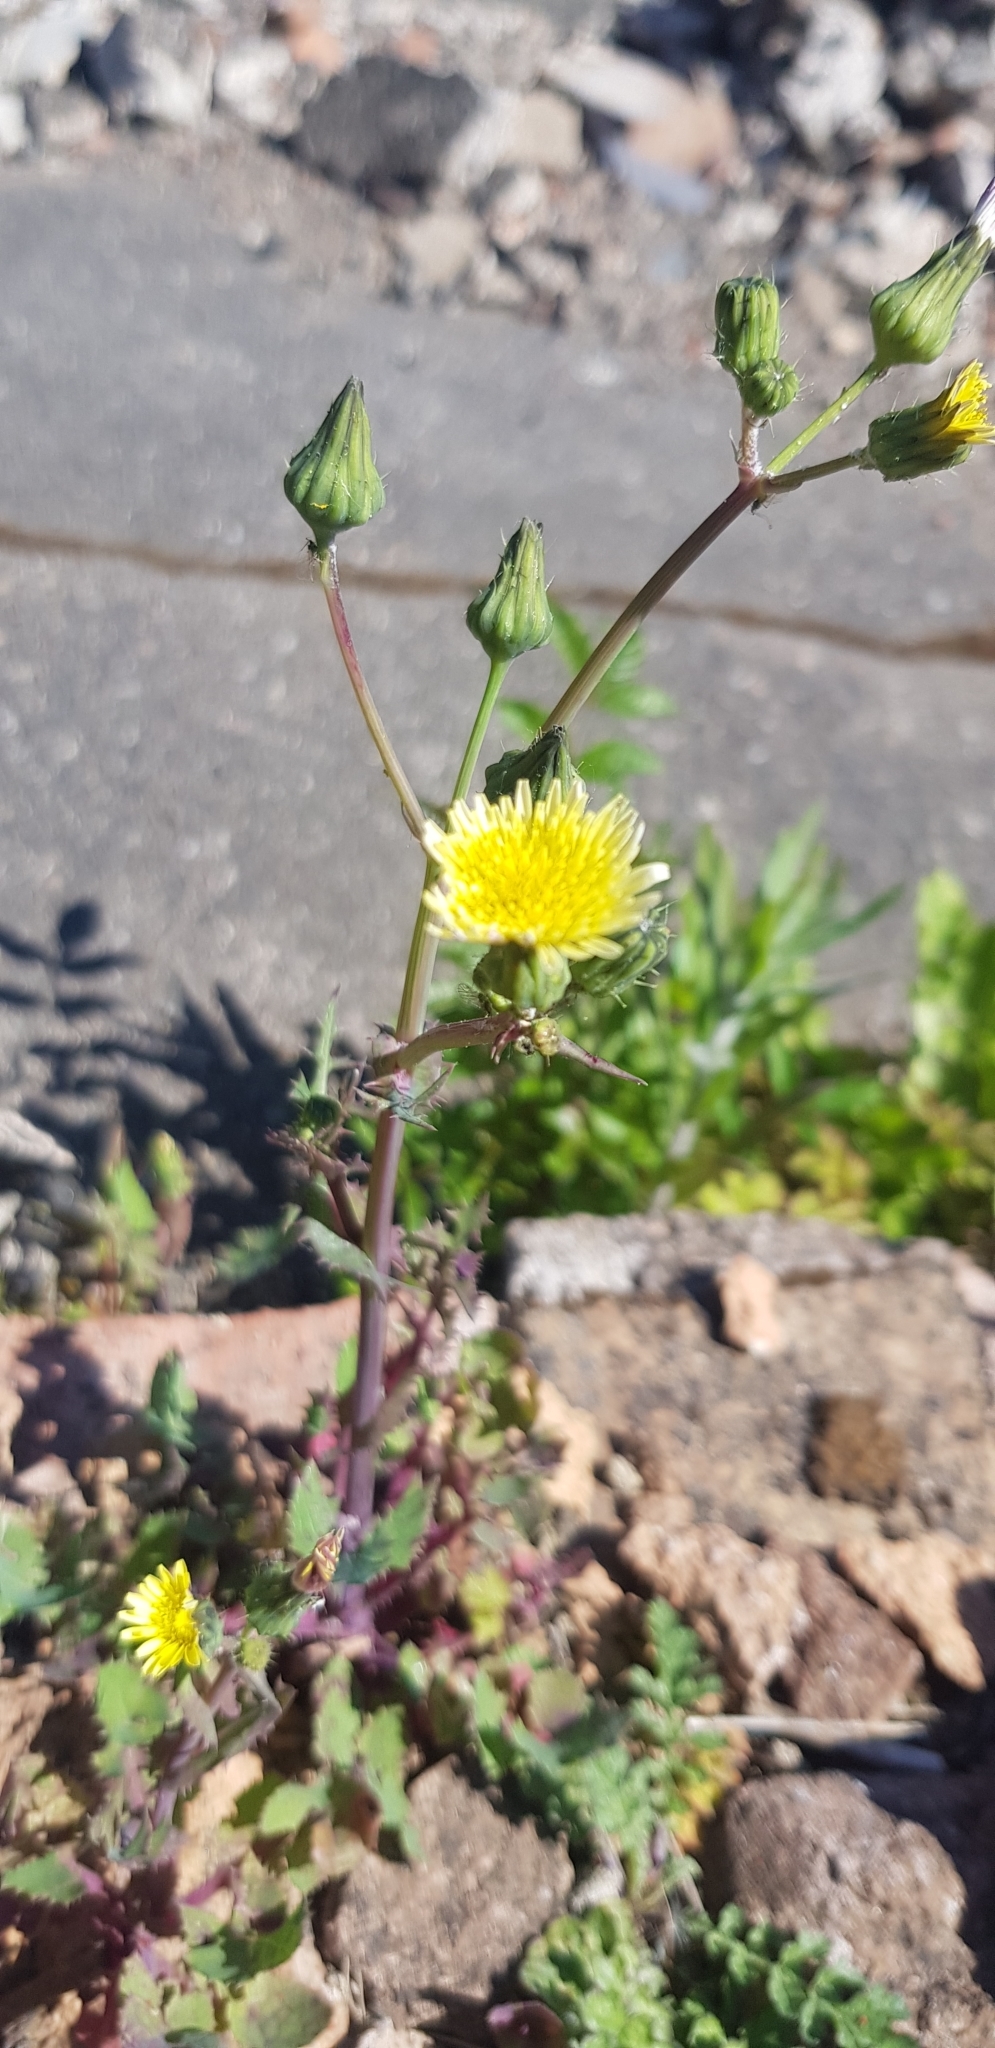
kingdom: Plantae
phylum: Tracheophyta
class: Magnoliopsida
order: Asterales
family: Asteraceae
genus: Sonchus
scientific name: Sonchus oleraceus
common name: Common sowthistle
